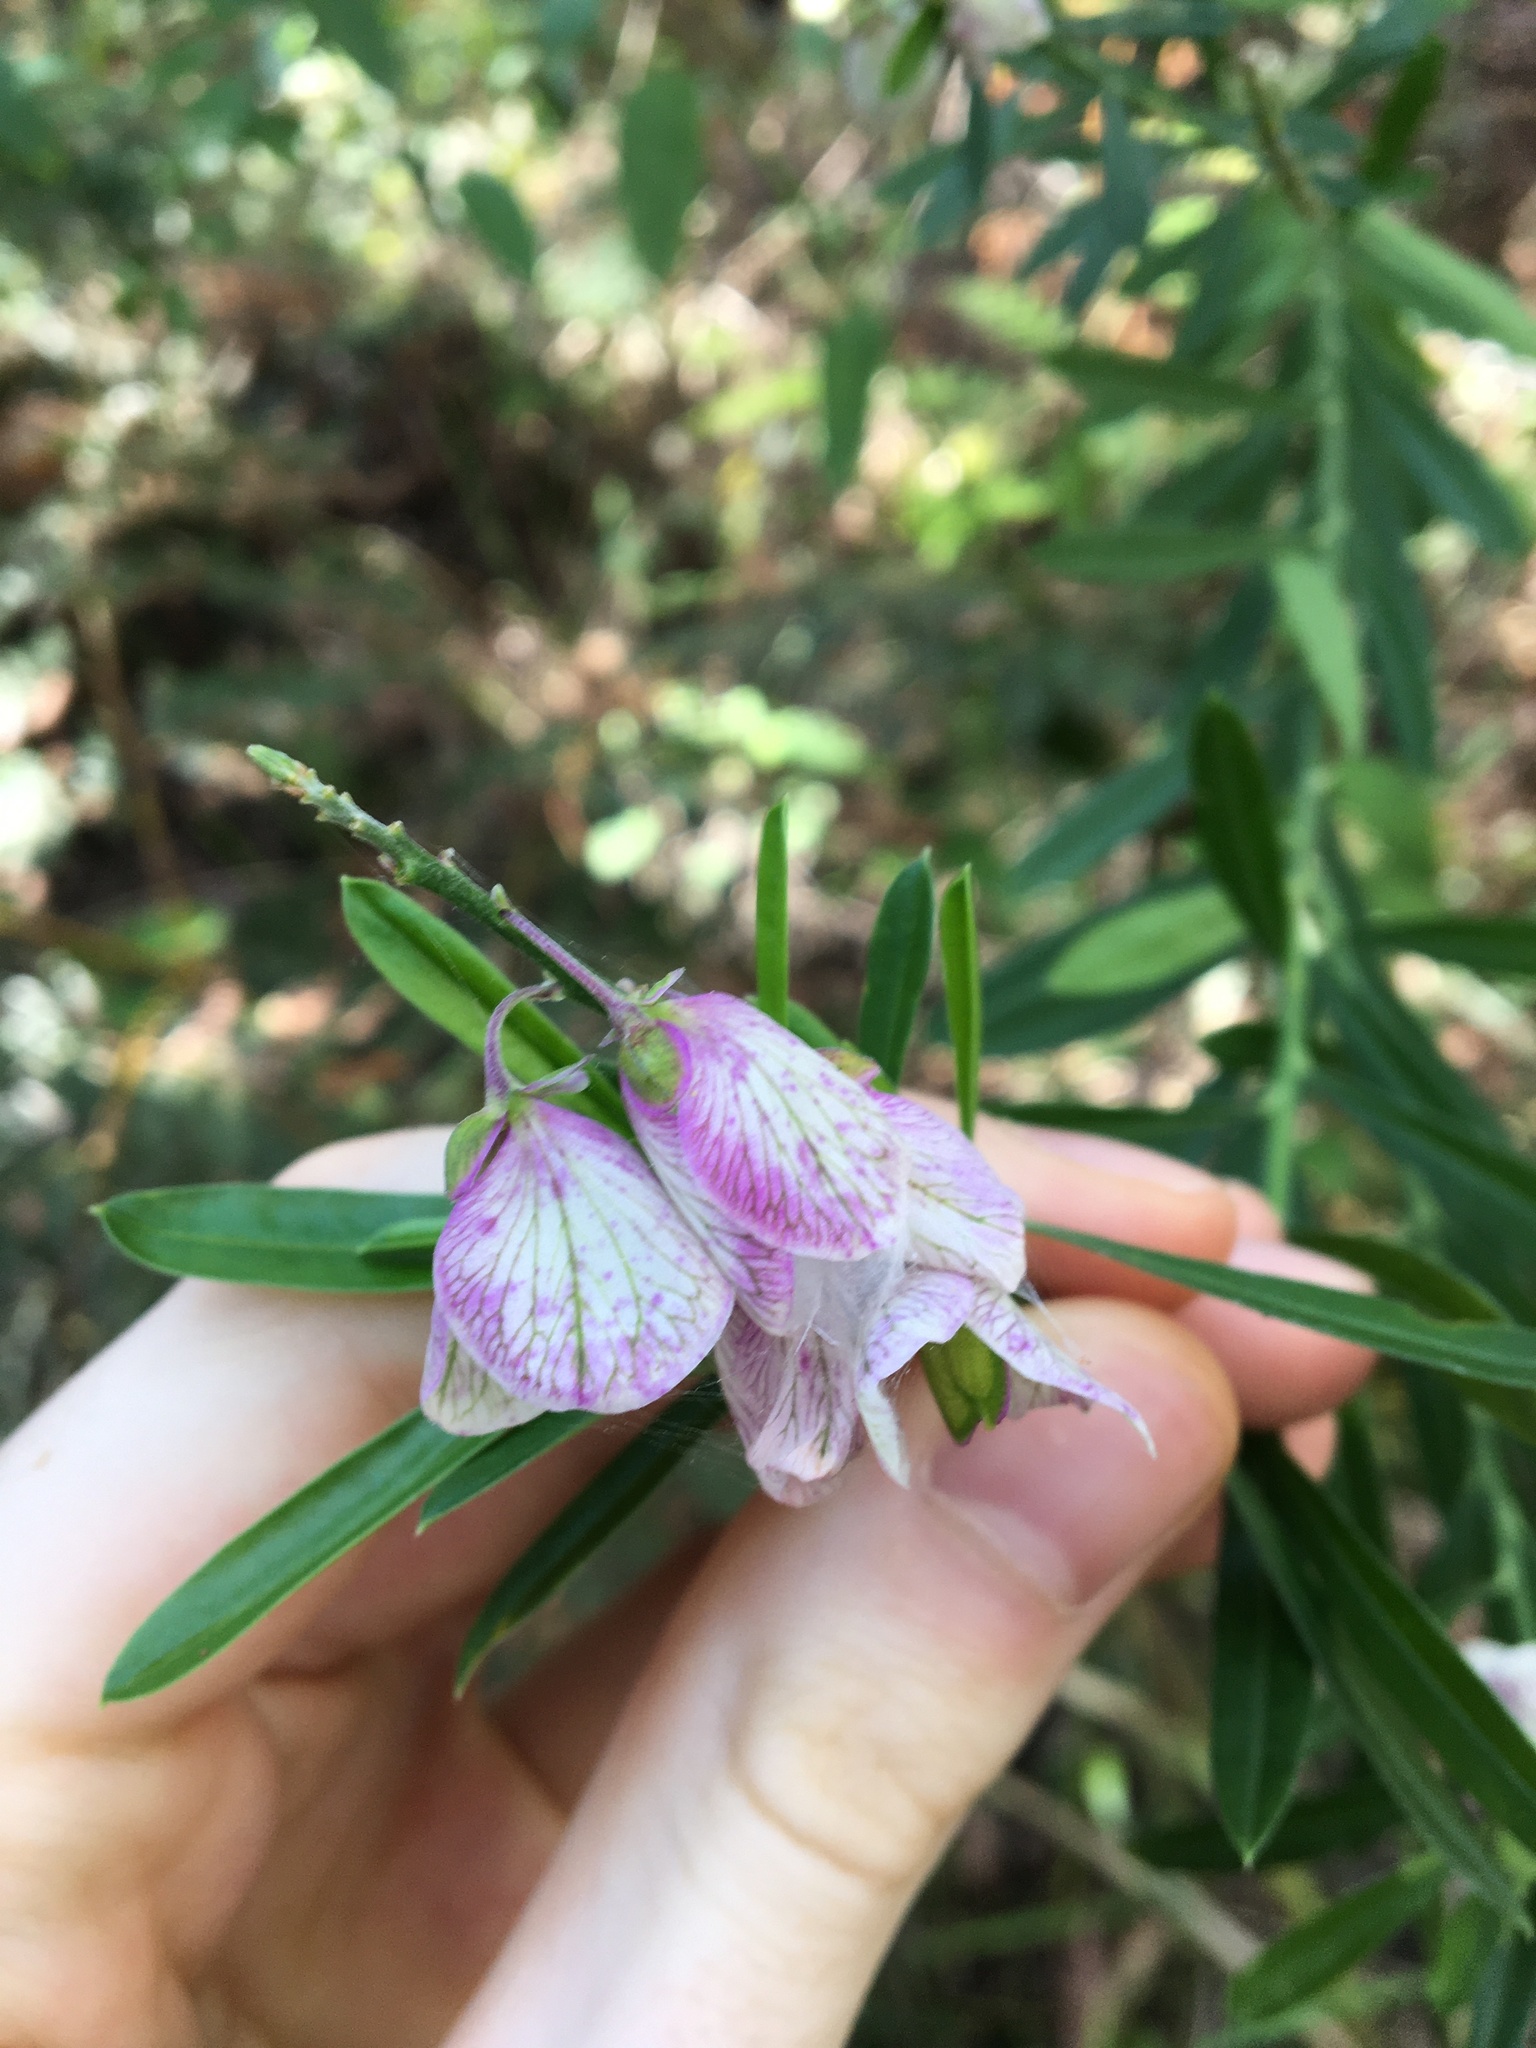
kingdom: Plantae
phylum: Tracheophyta
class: Magnoliopsida
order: Fabales
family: Polygalaceae
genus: Polygala
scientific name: Polygala virgata
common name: Milkwort
